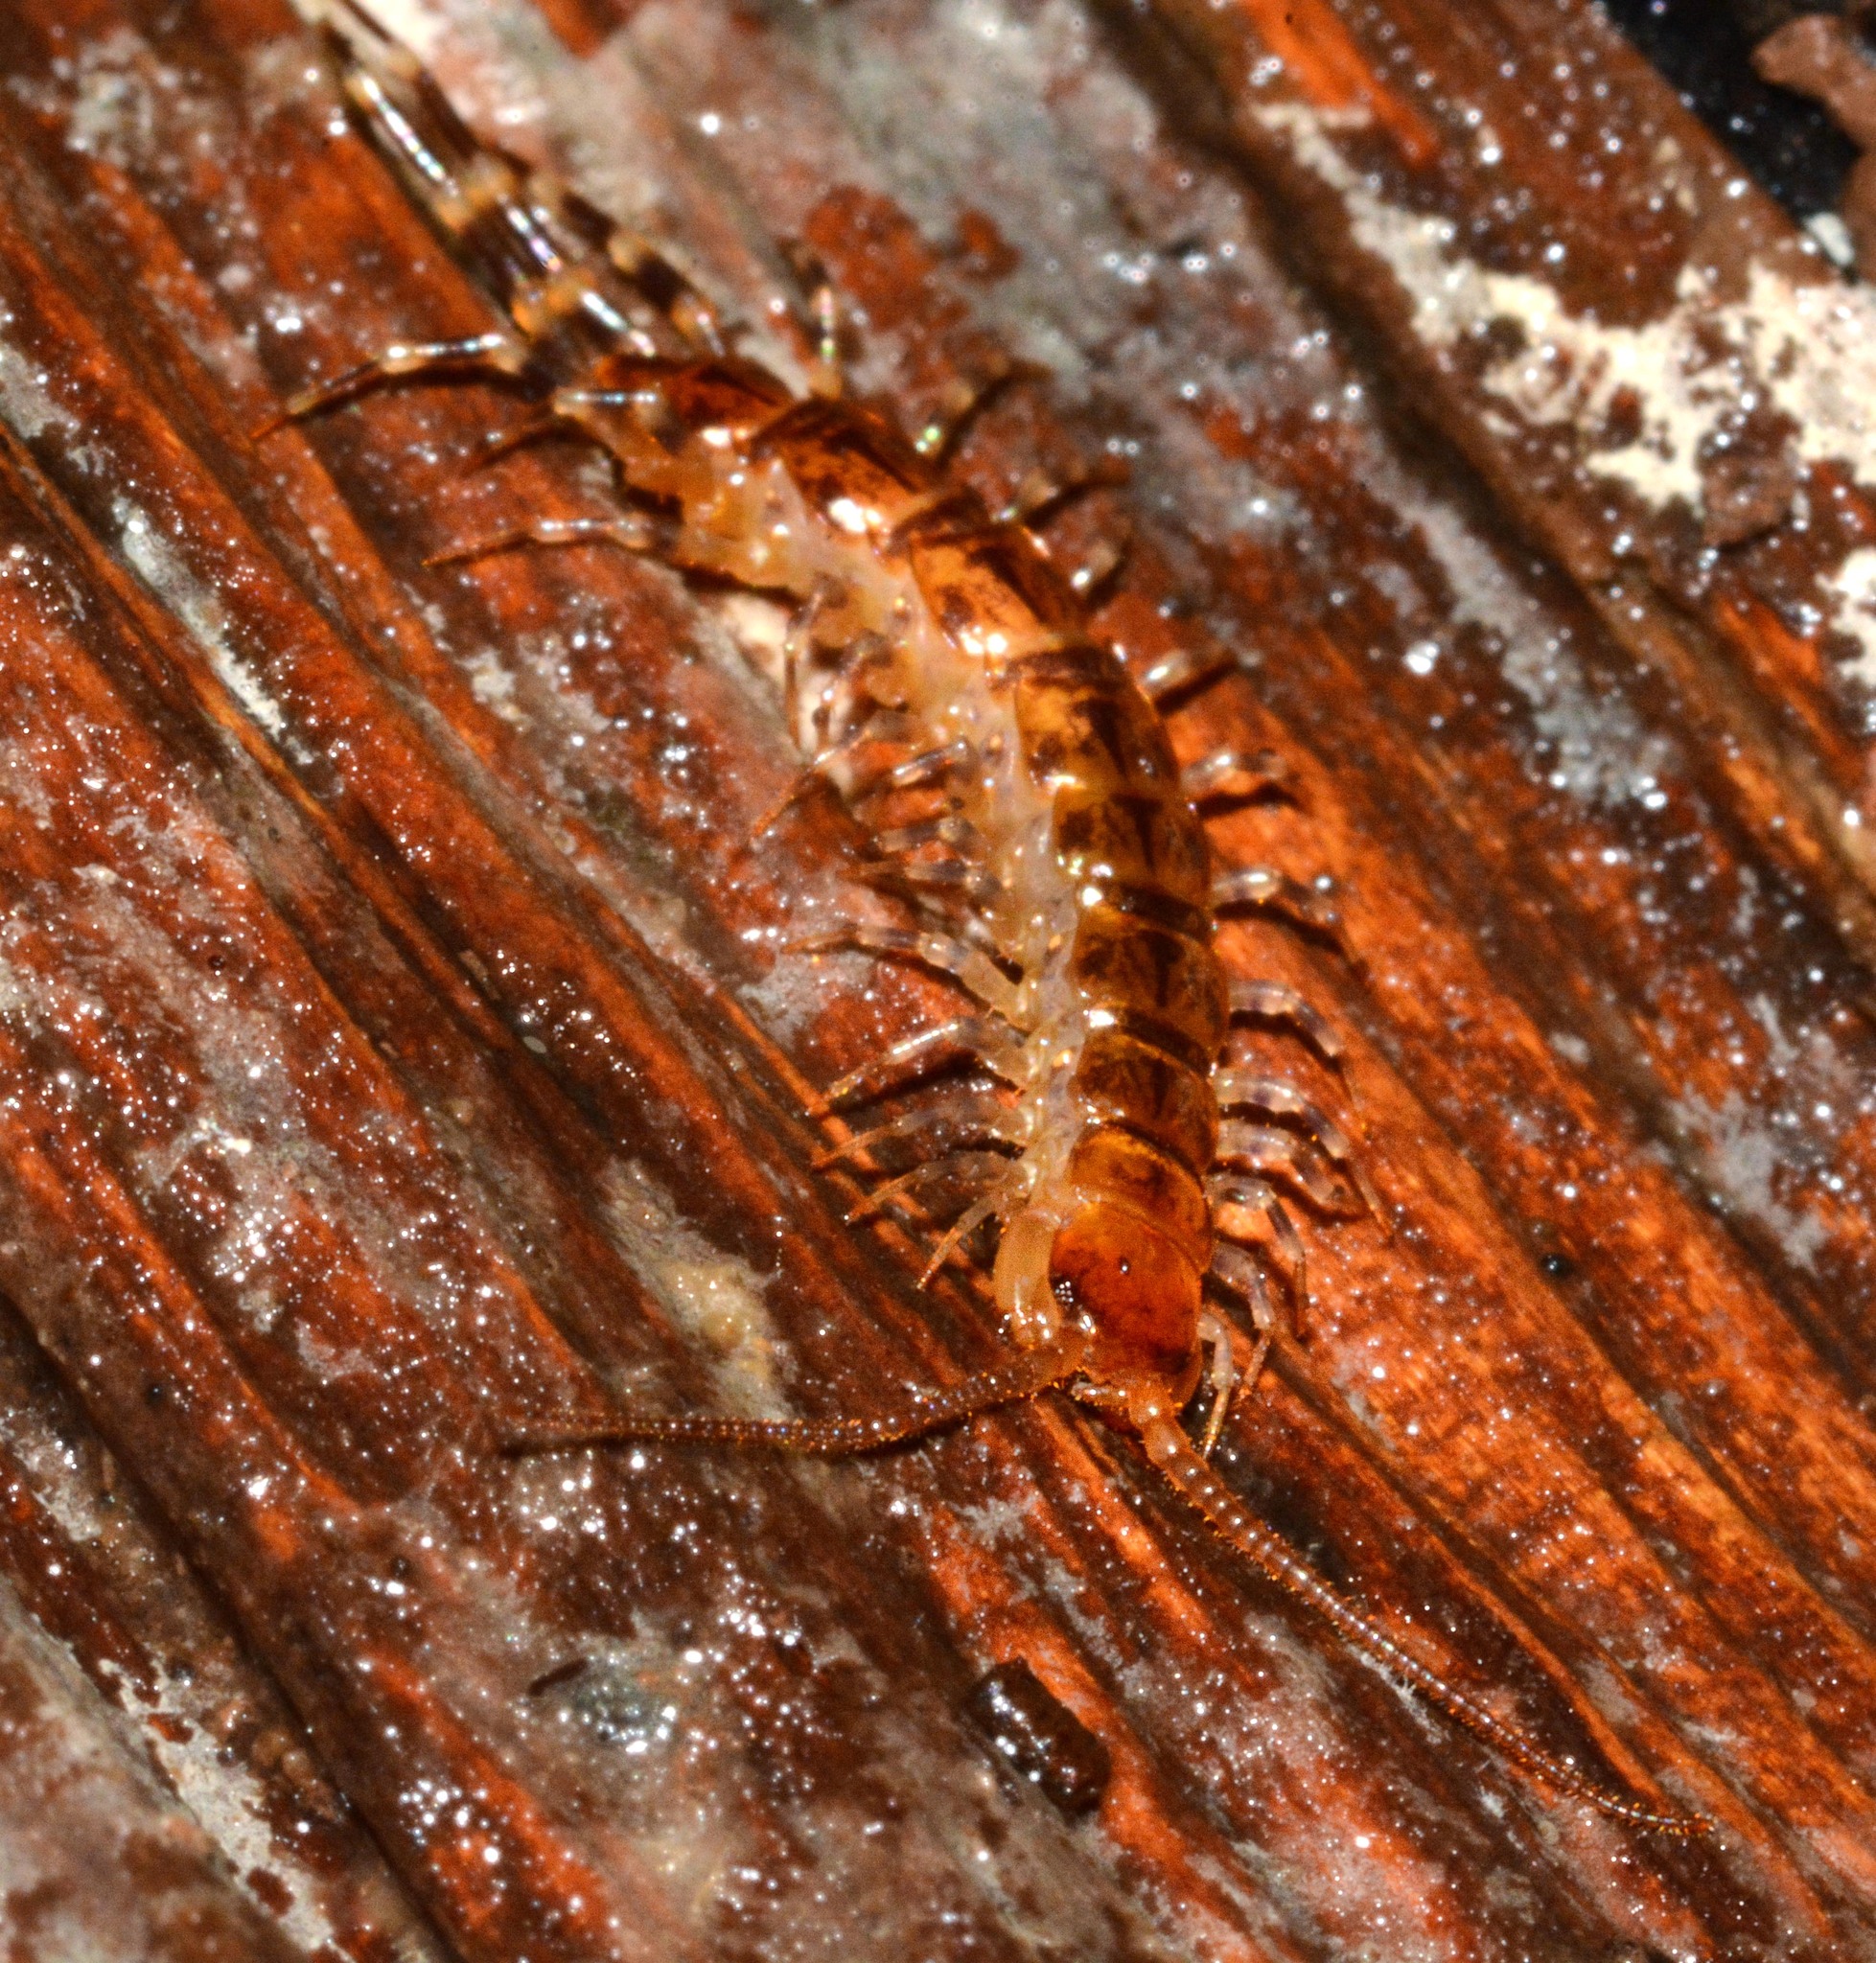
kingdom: Animalia
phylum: Arthropoda
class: Chilopoda
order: Lithobiomorpha
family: Lithobiidae
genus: Lithobius
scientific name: Lithobius variegatus
